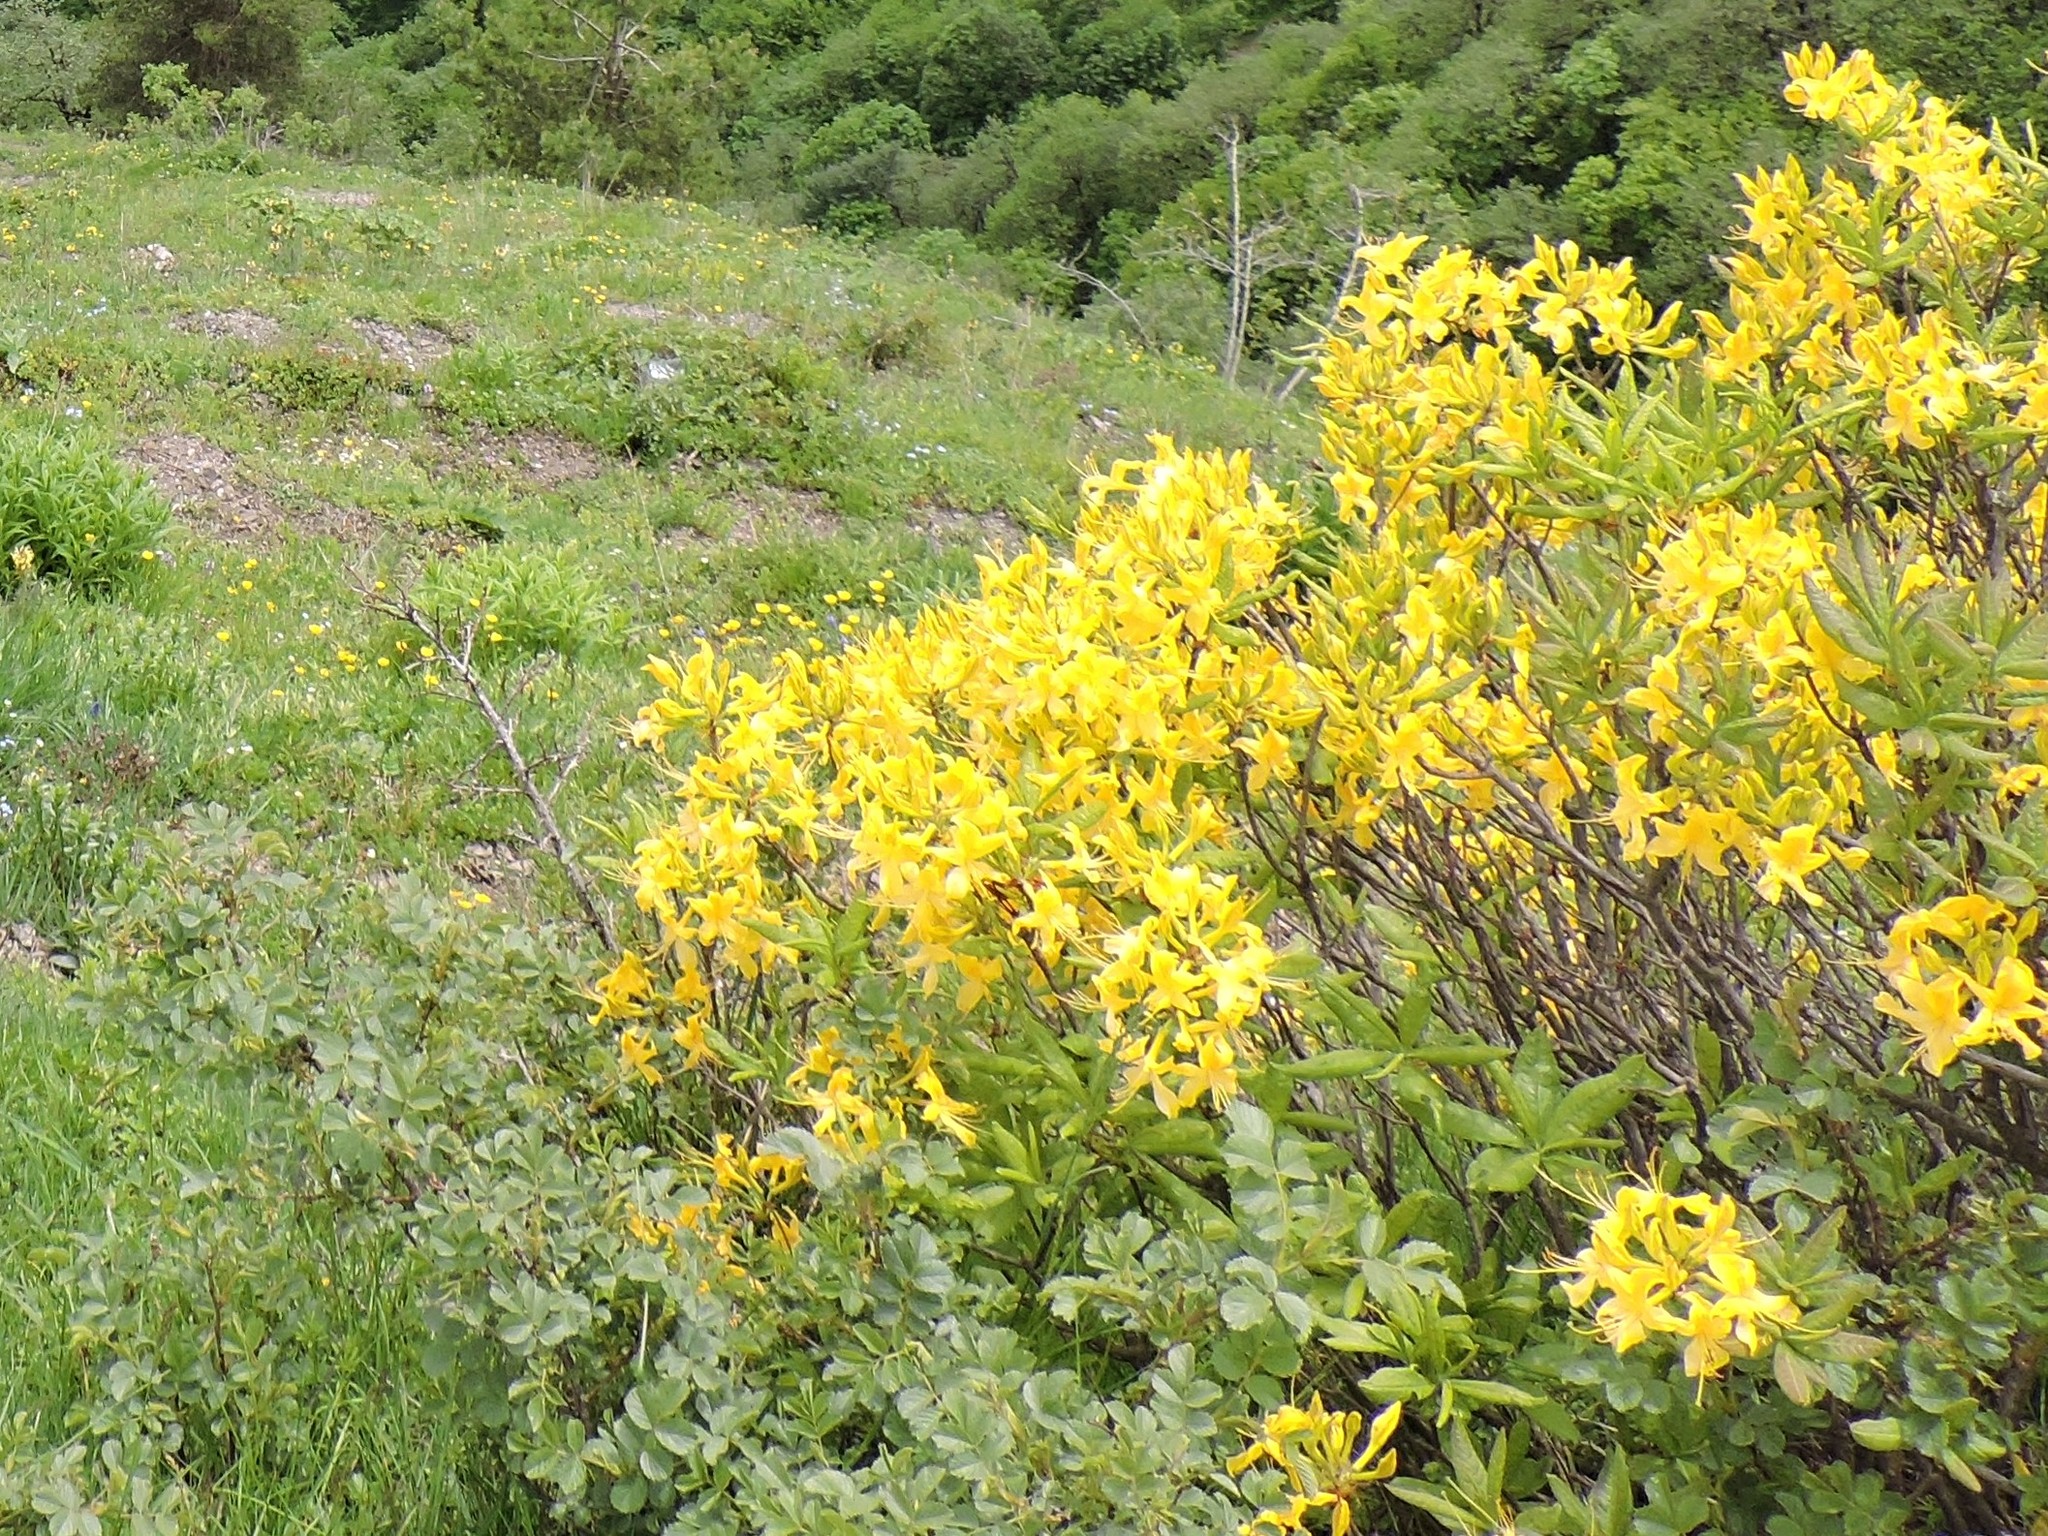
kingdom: Plantae
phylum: Tracheophyta
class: Magnoliopsida
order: Ericales
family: Ericaceae
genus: Rhododendron
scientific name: Rhododendron luteum
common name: Yellow azalea
